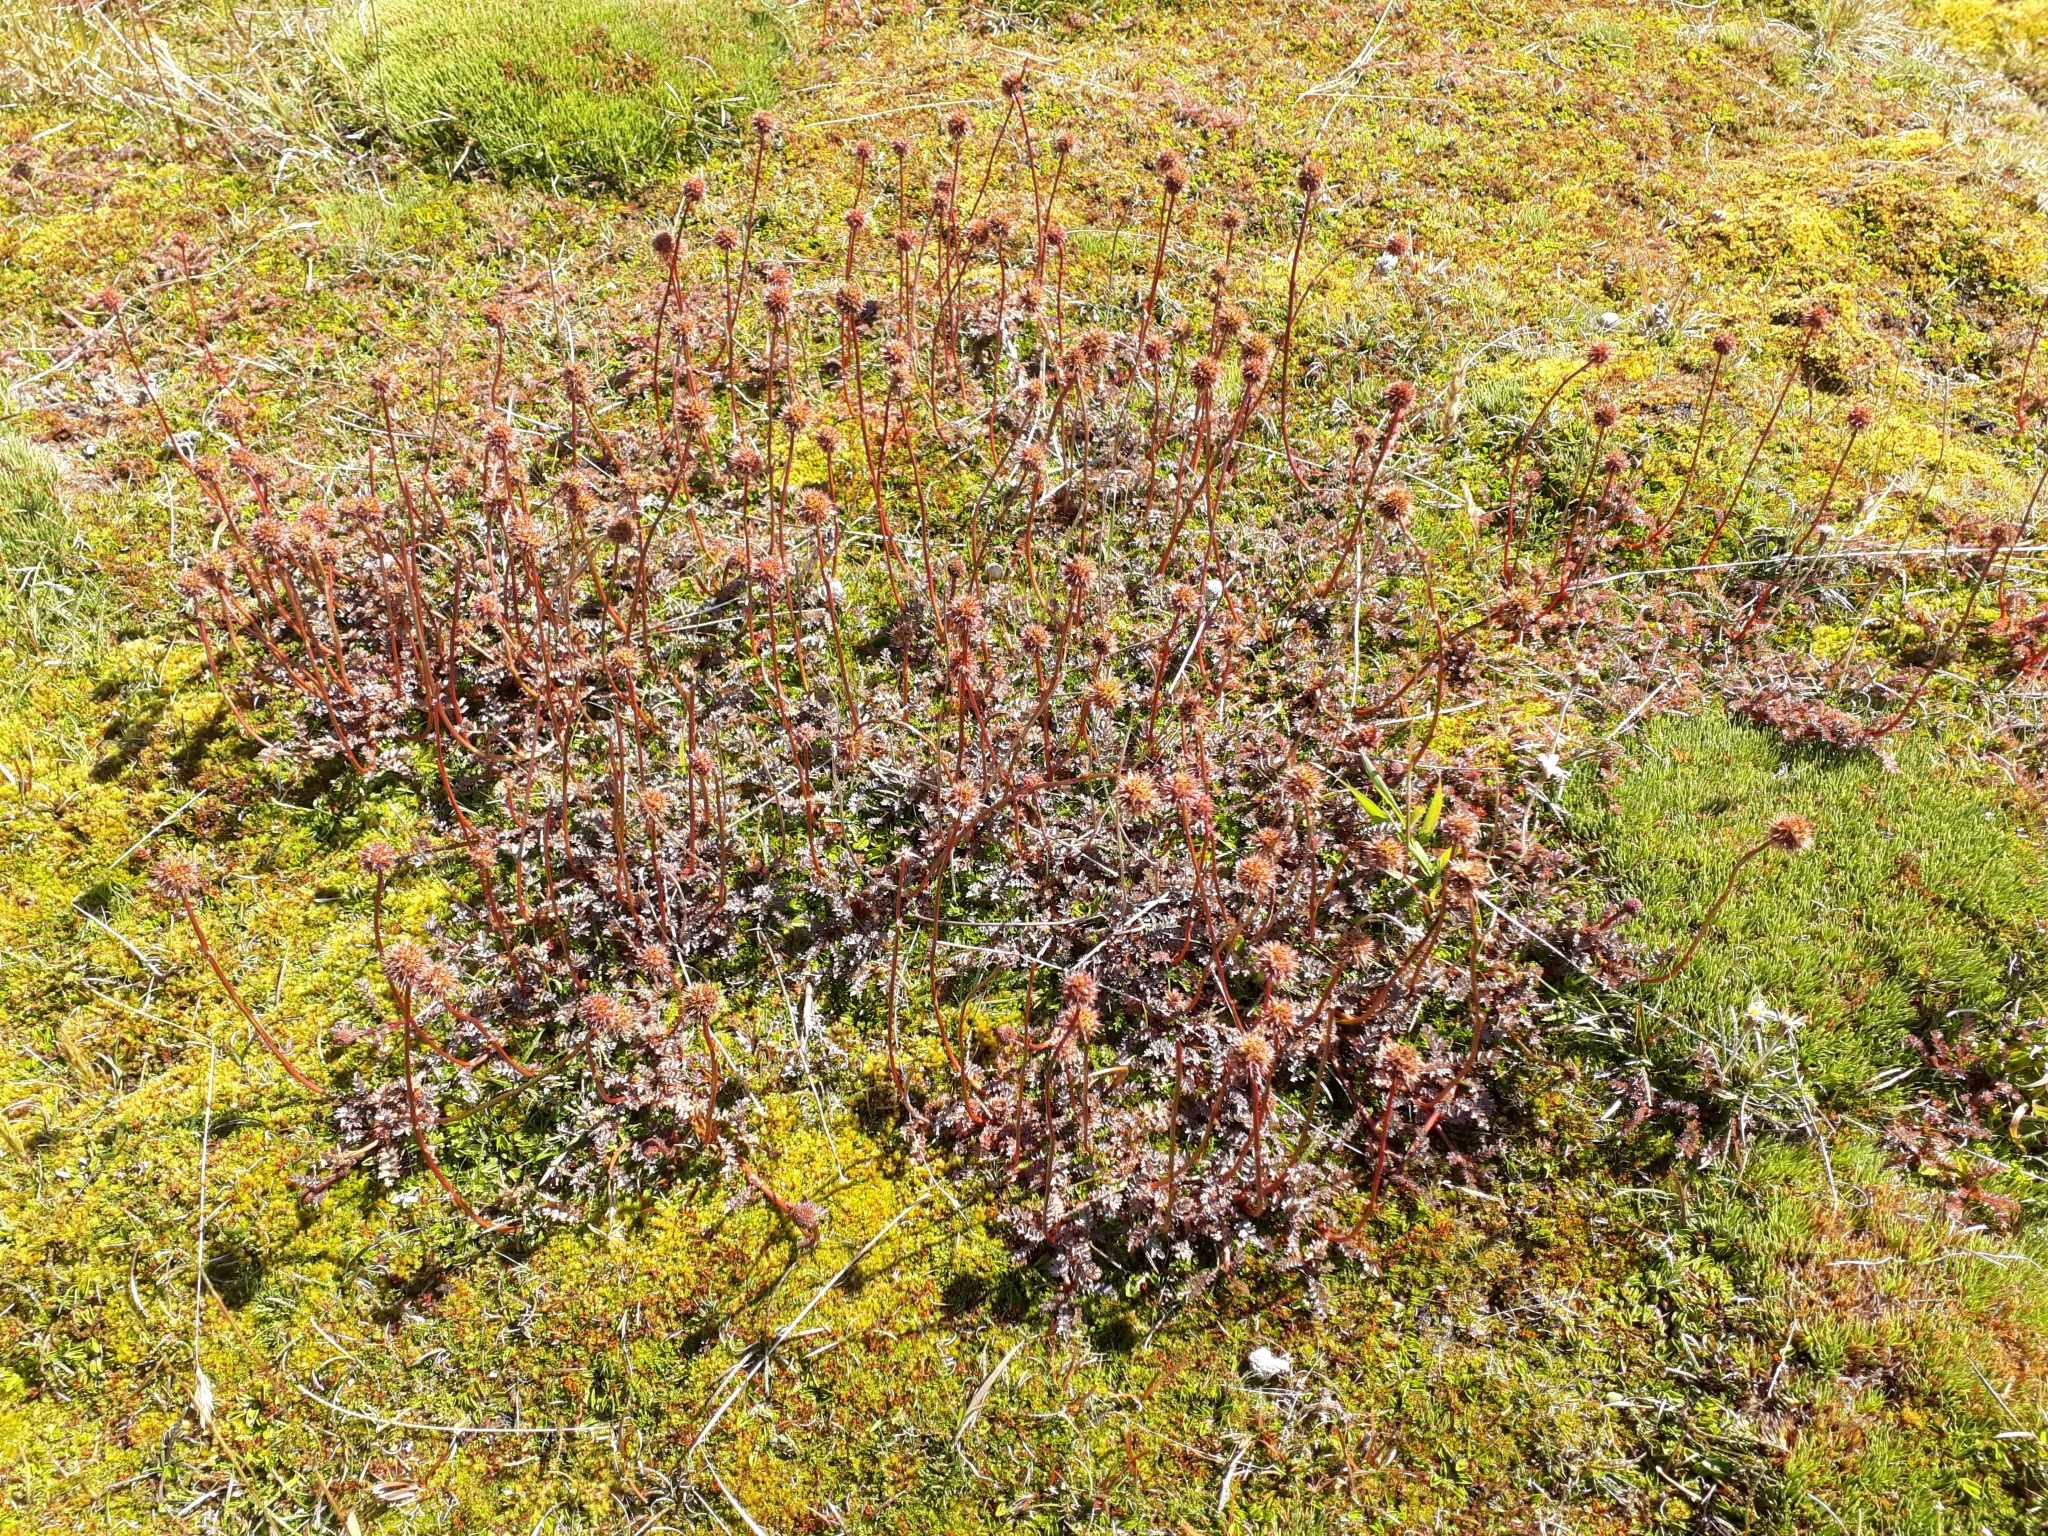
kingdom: Plantae
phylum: Tracheophyta
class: Magnoliopsida
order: Rosales
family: Rosaceae
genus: Acaena
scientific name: Acaena saccaticupula
